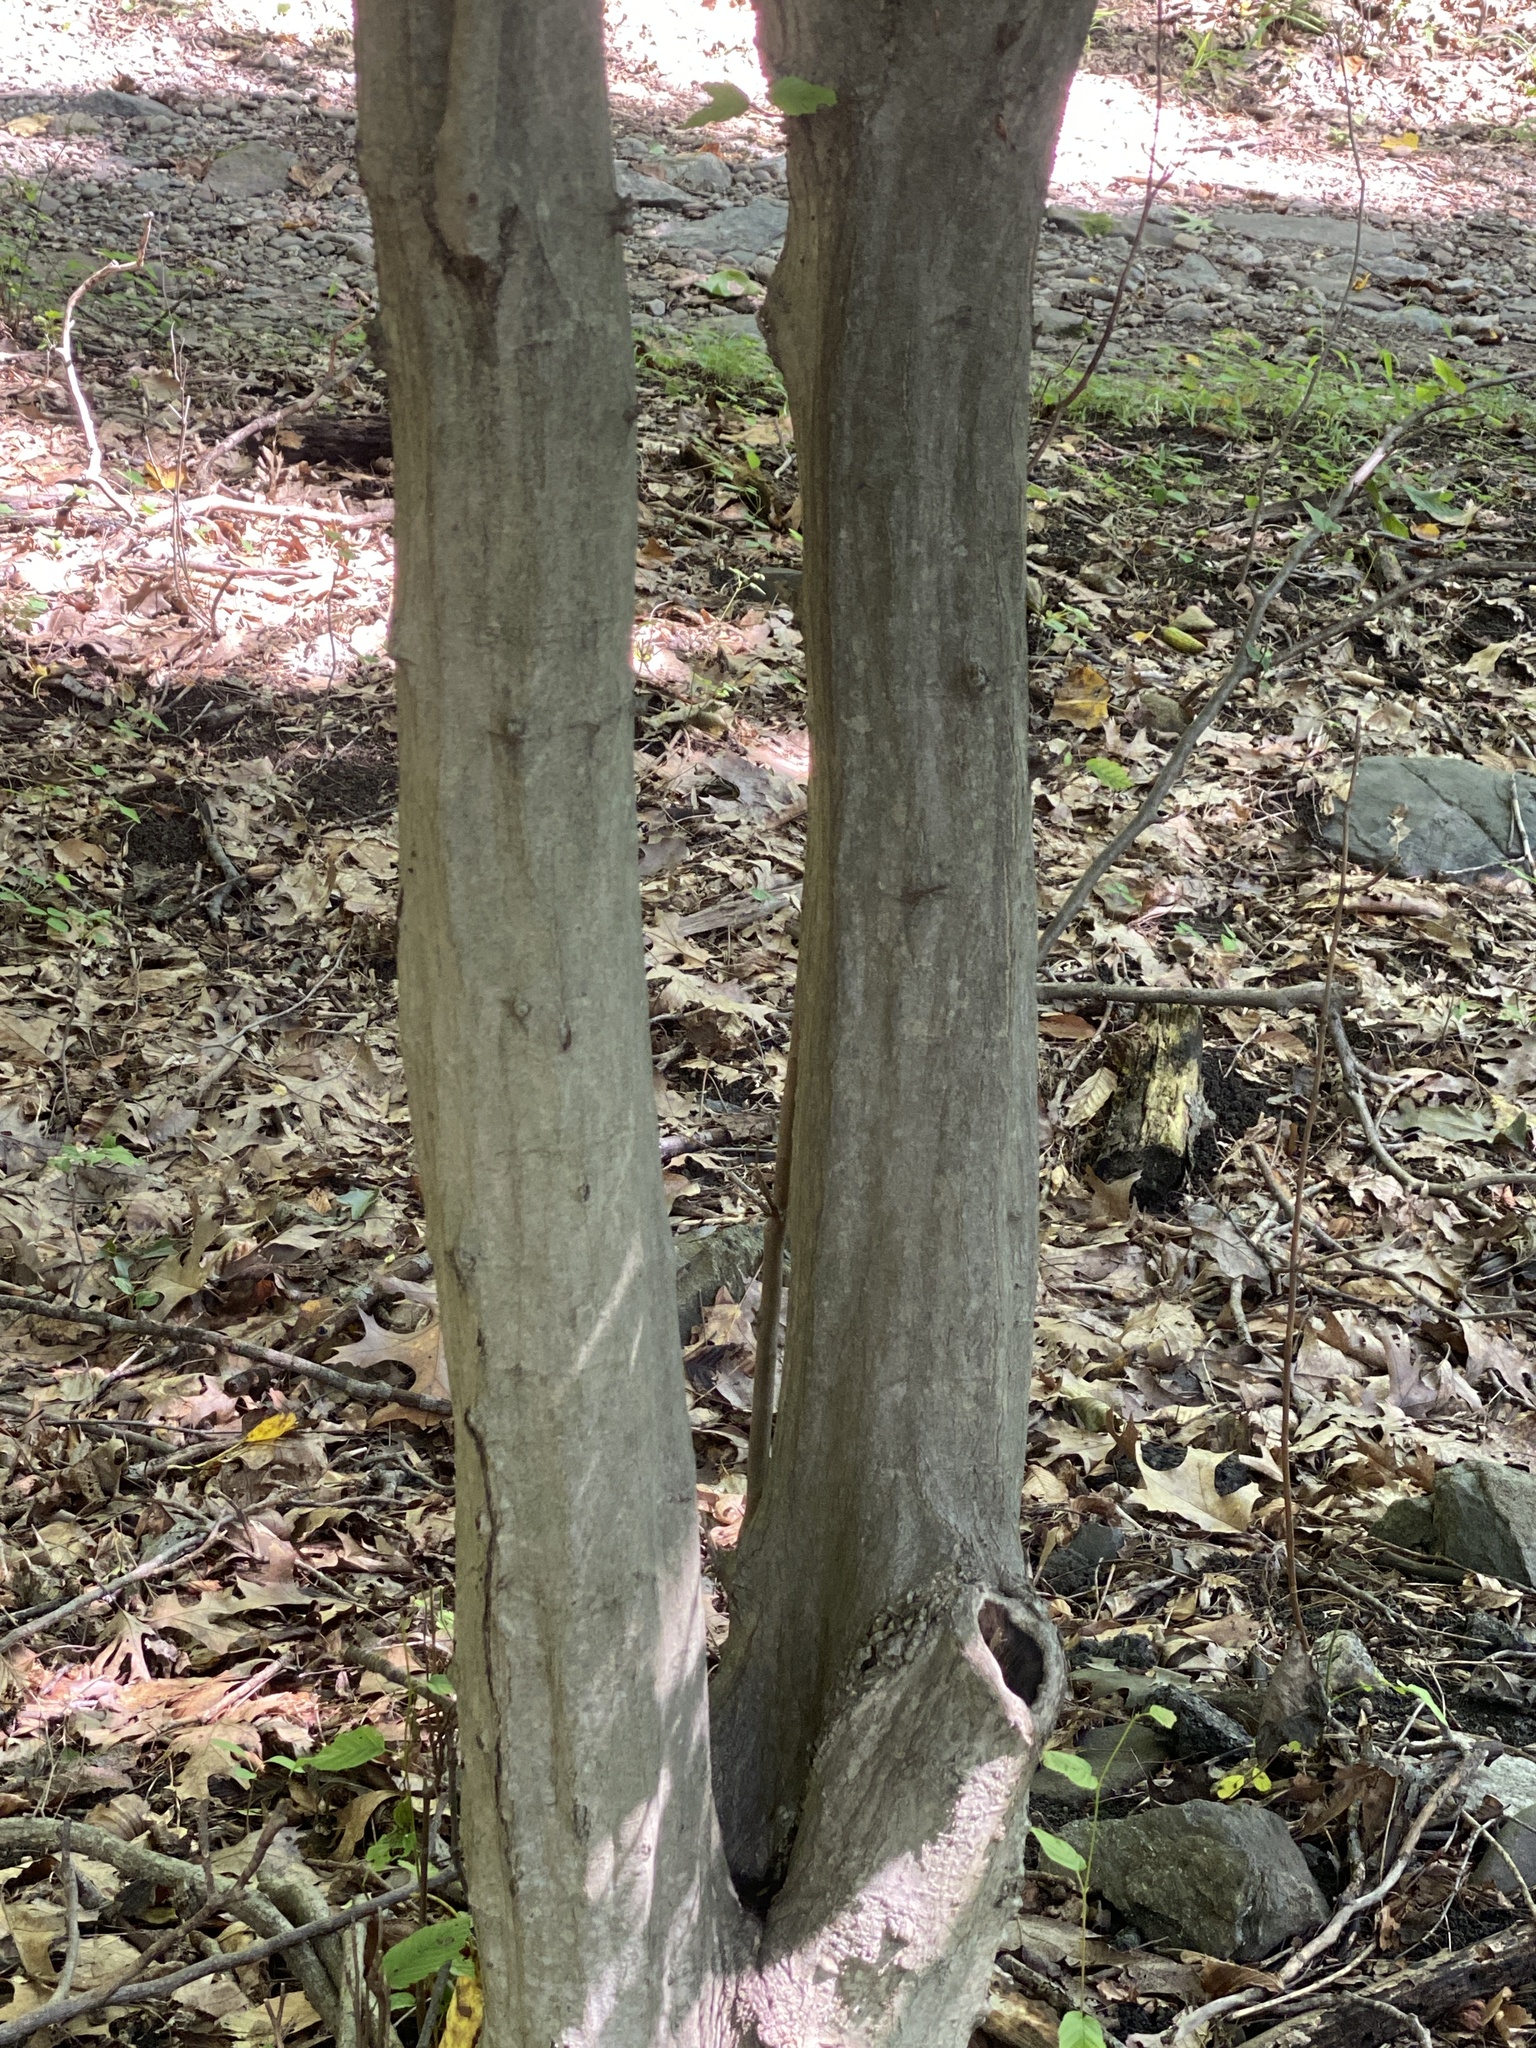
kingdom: Plantae
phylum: Tracheophyta
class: Magnoliopsida
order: Fagales
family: Betulaceae
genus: Carpinus
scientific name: Carpinus caroliniana
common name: American hornbeam
